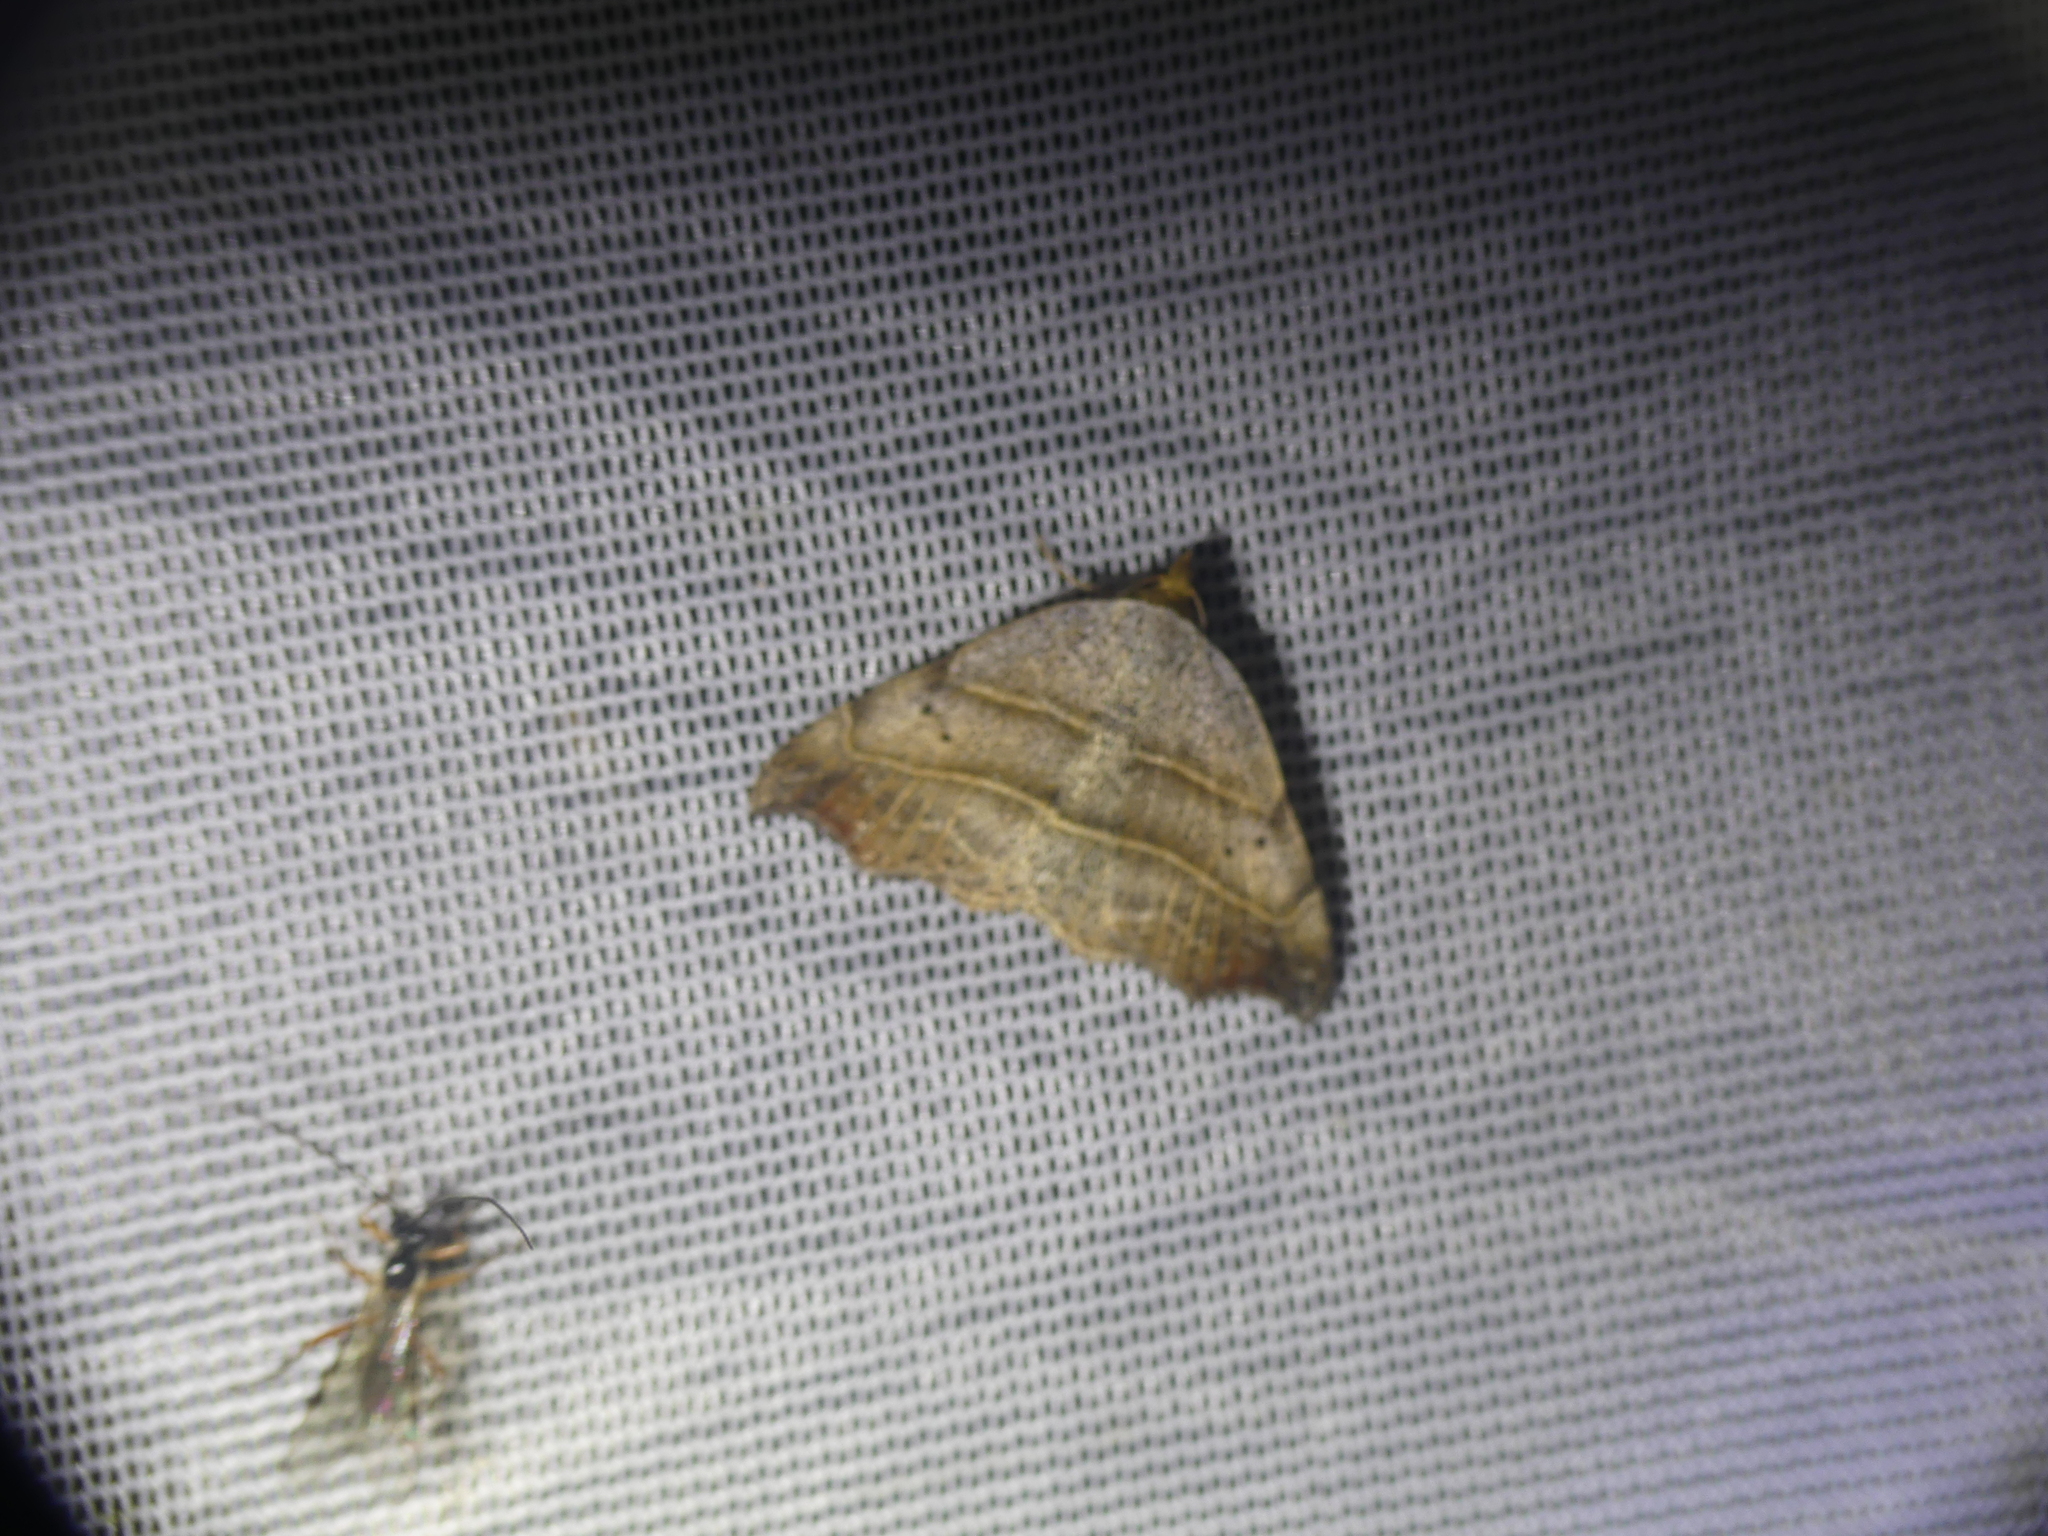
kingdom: Animalia
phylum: Arthropoda
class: Insecta
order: Lepidoptera
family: Erebidae
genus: Laspeyria
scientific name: Laspeyria flexula
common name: Beautiful hook-tip
